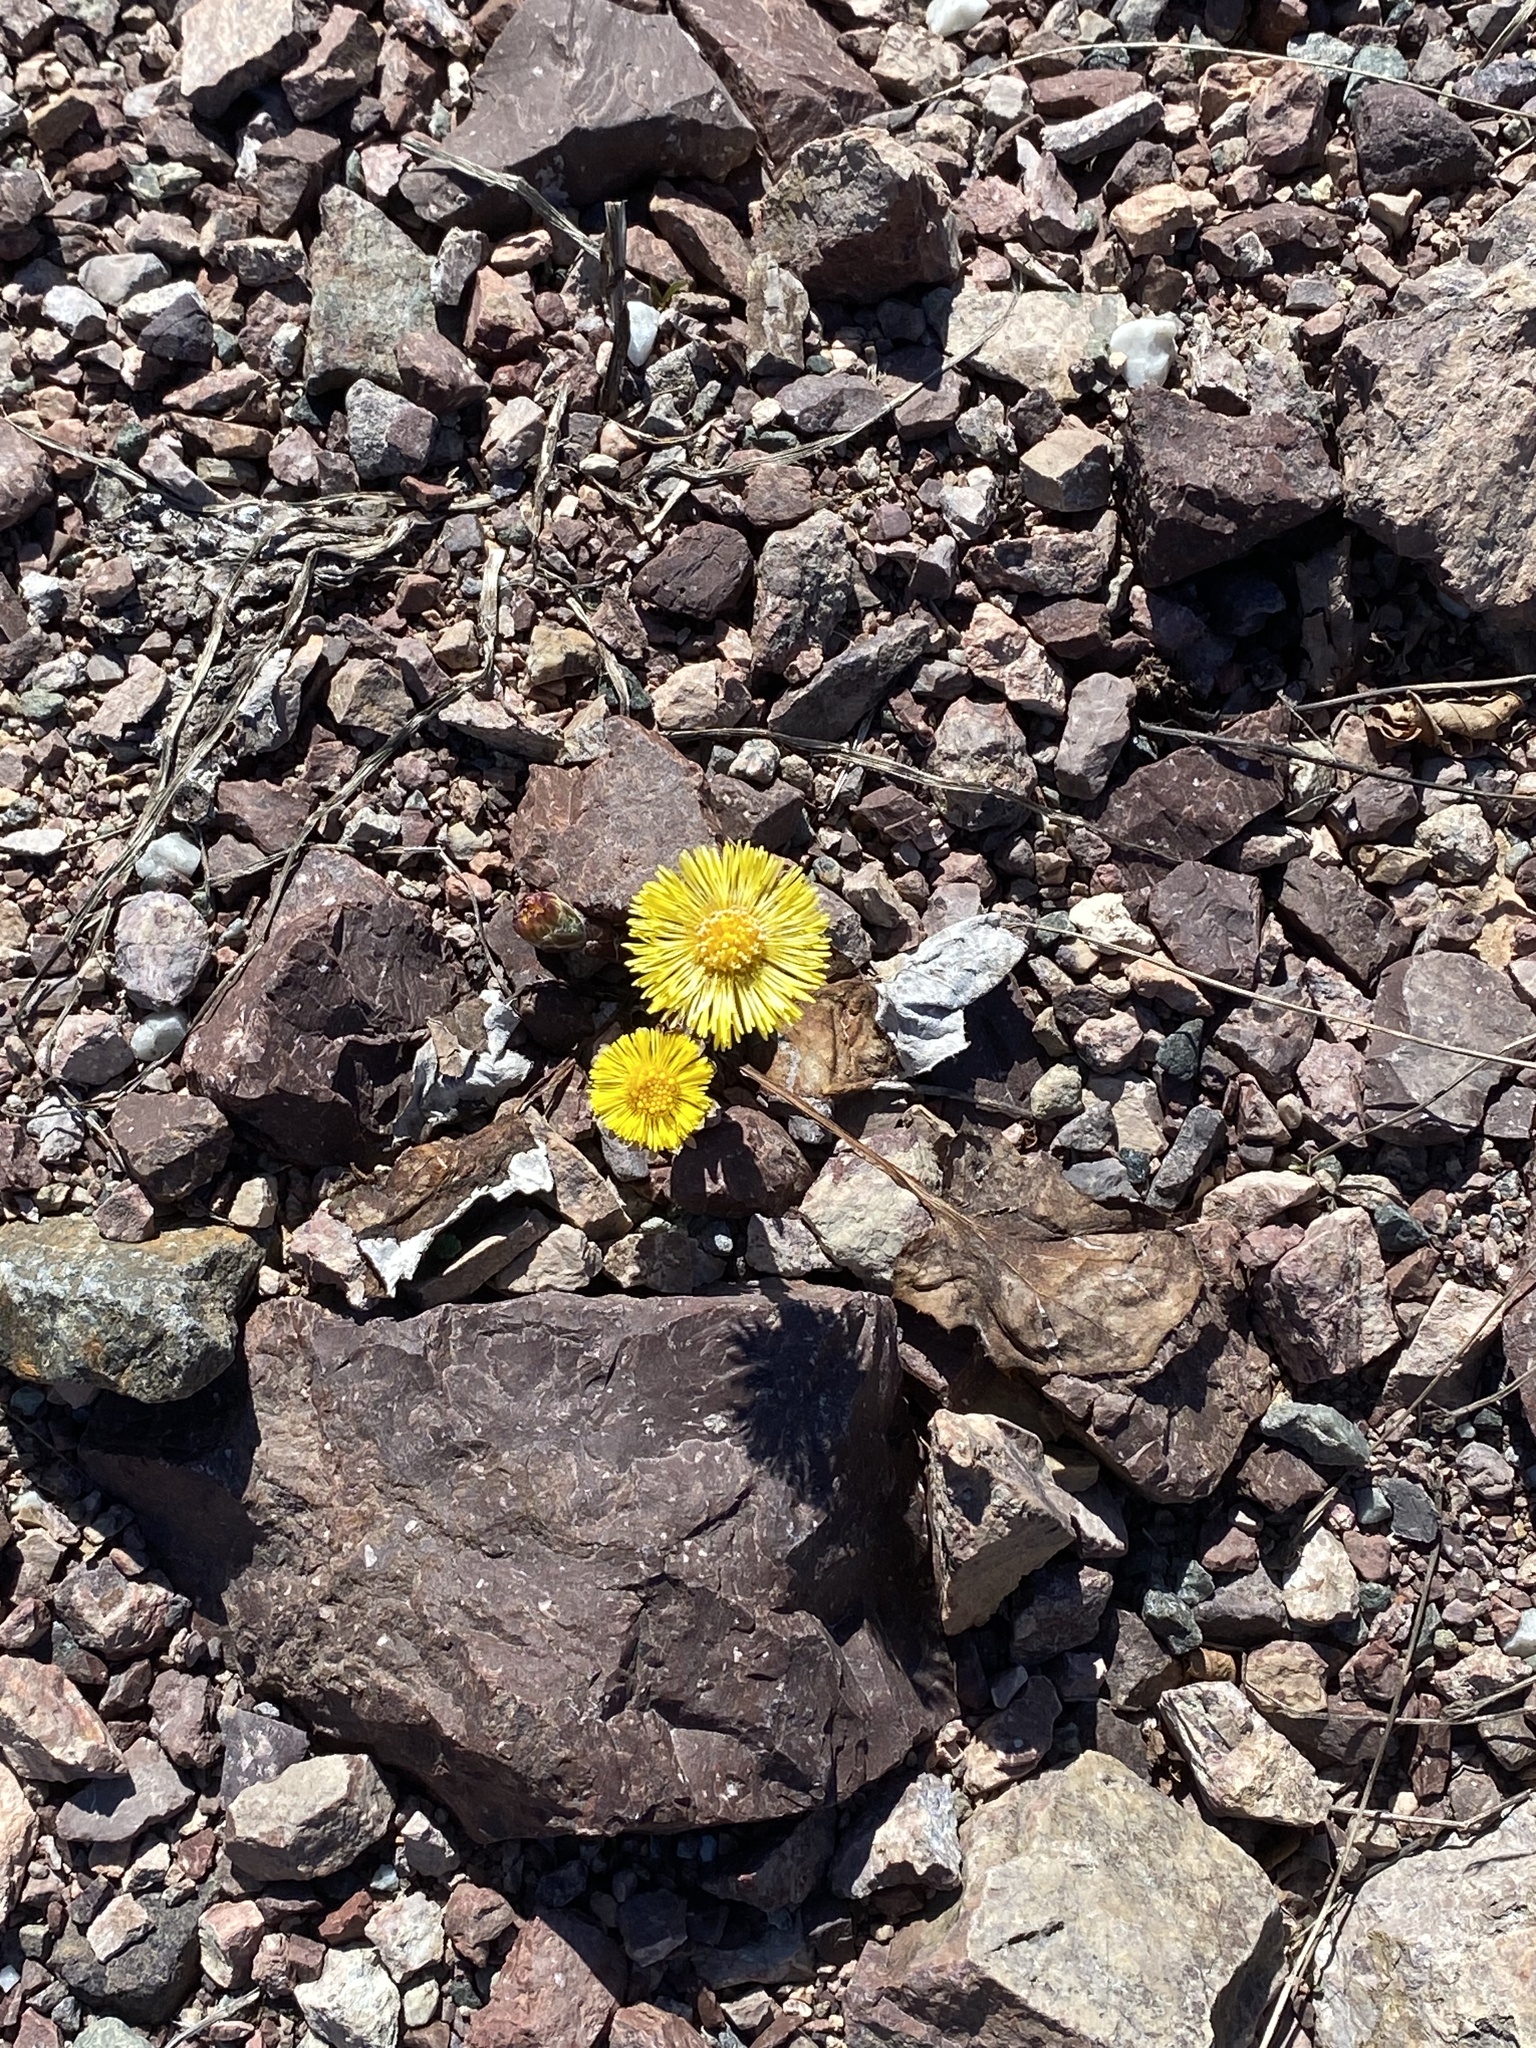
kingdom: Plantae
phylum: Tracheophyta
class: Magnoliopsida
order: Asterales
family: Asteraceae
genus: Tussilago
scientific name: Tussilago farfara
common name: Coltsfoot
